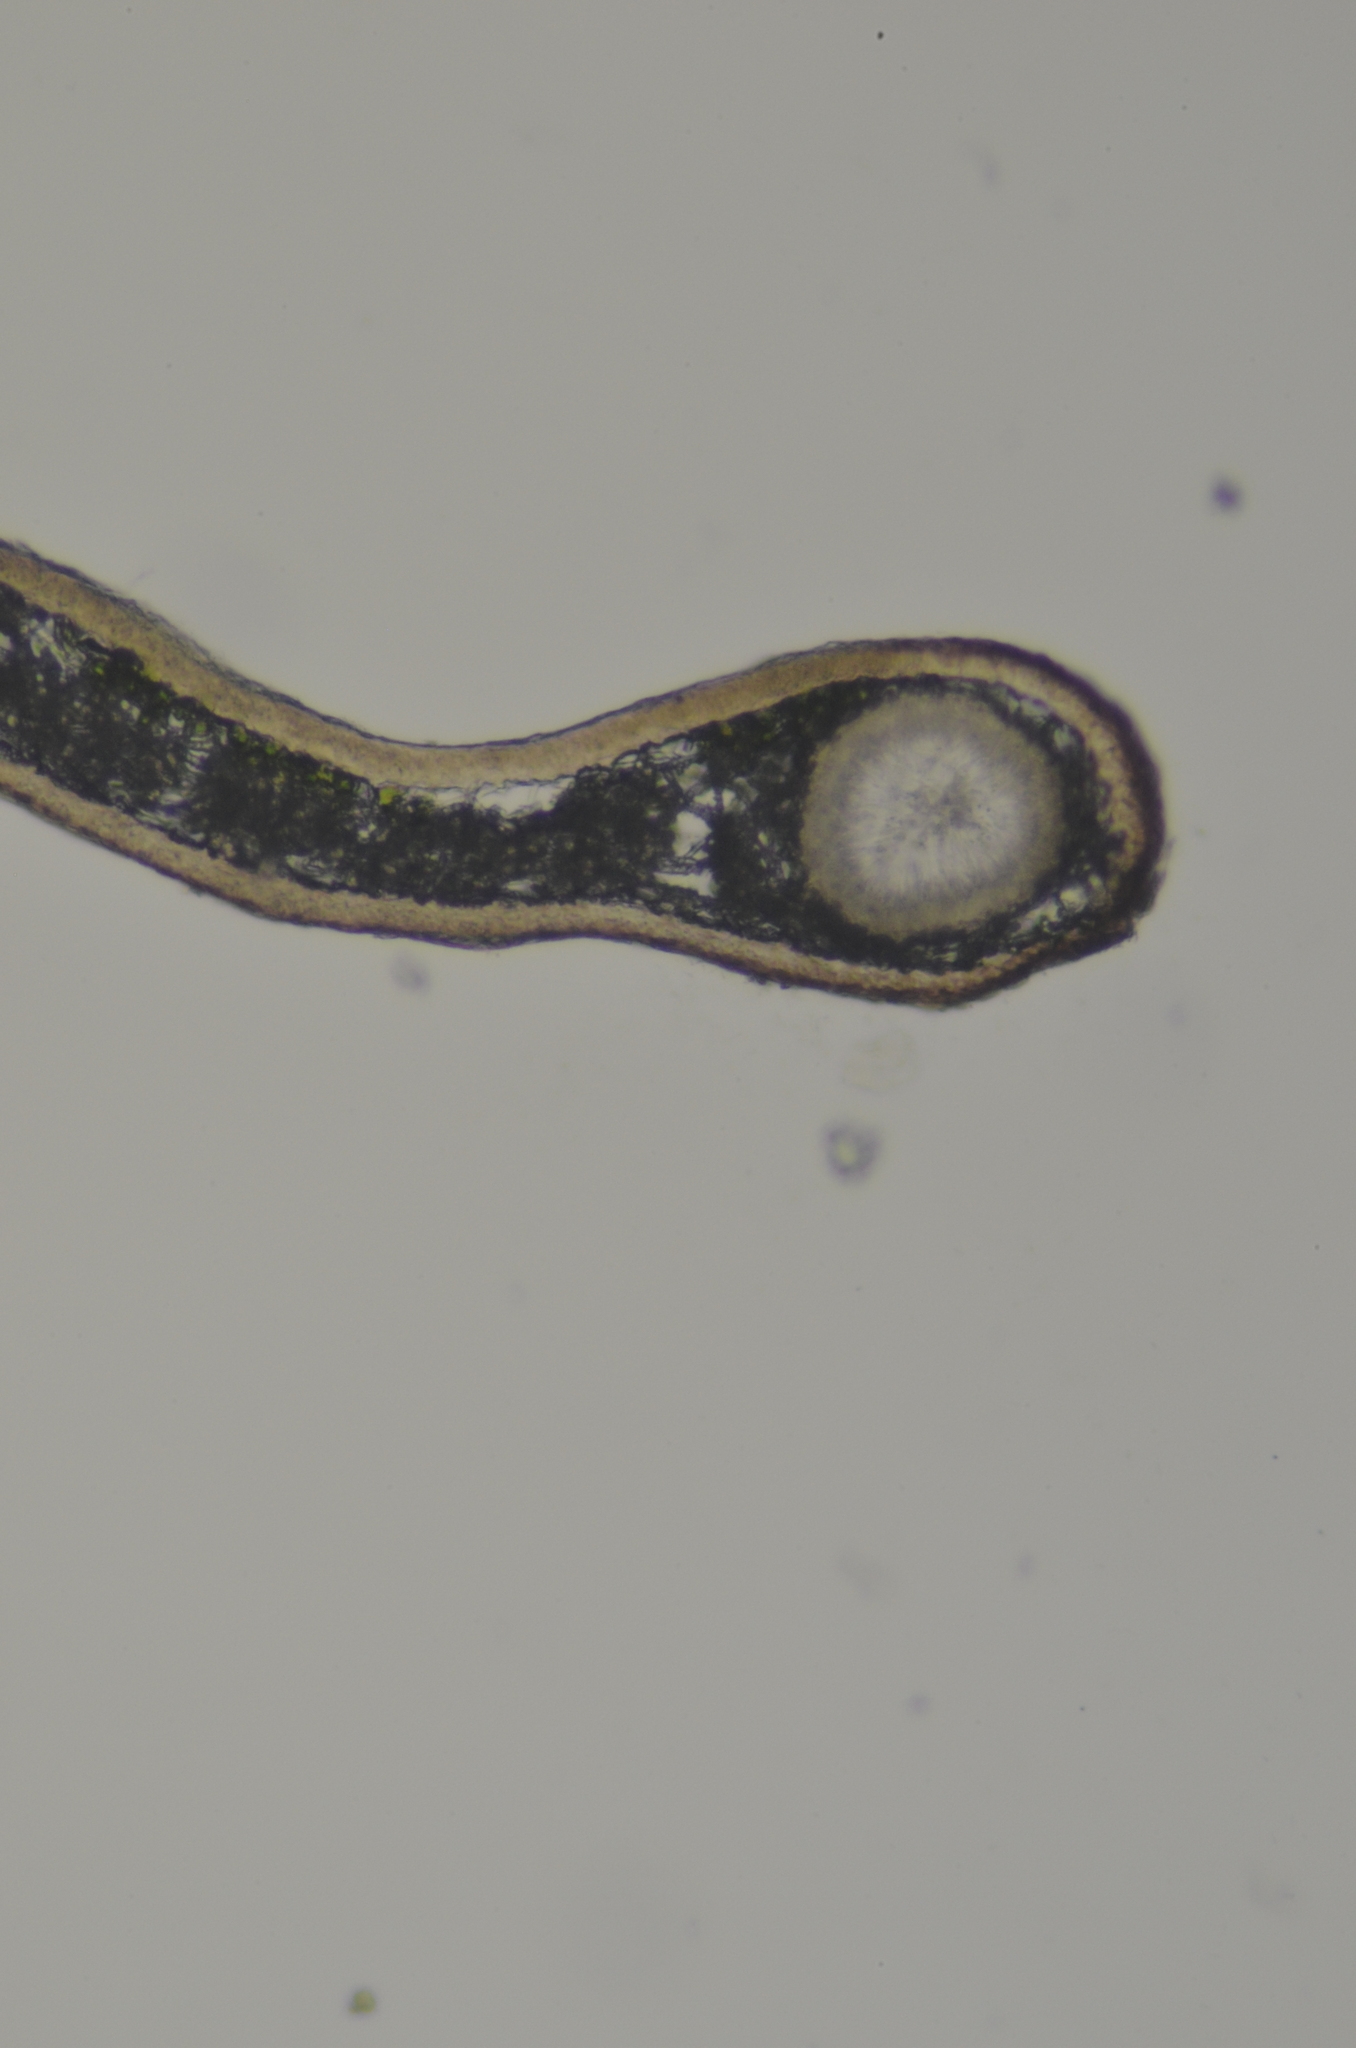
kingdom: Fungi
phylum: Ascomycota
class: Lecanoromycetes
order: Lecanorales
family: Parmeliaceae
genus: Platismatia
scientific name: Platismatia stenophylla
